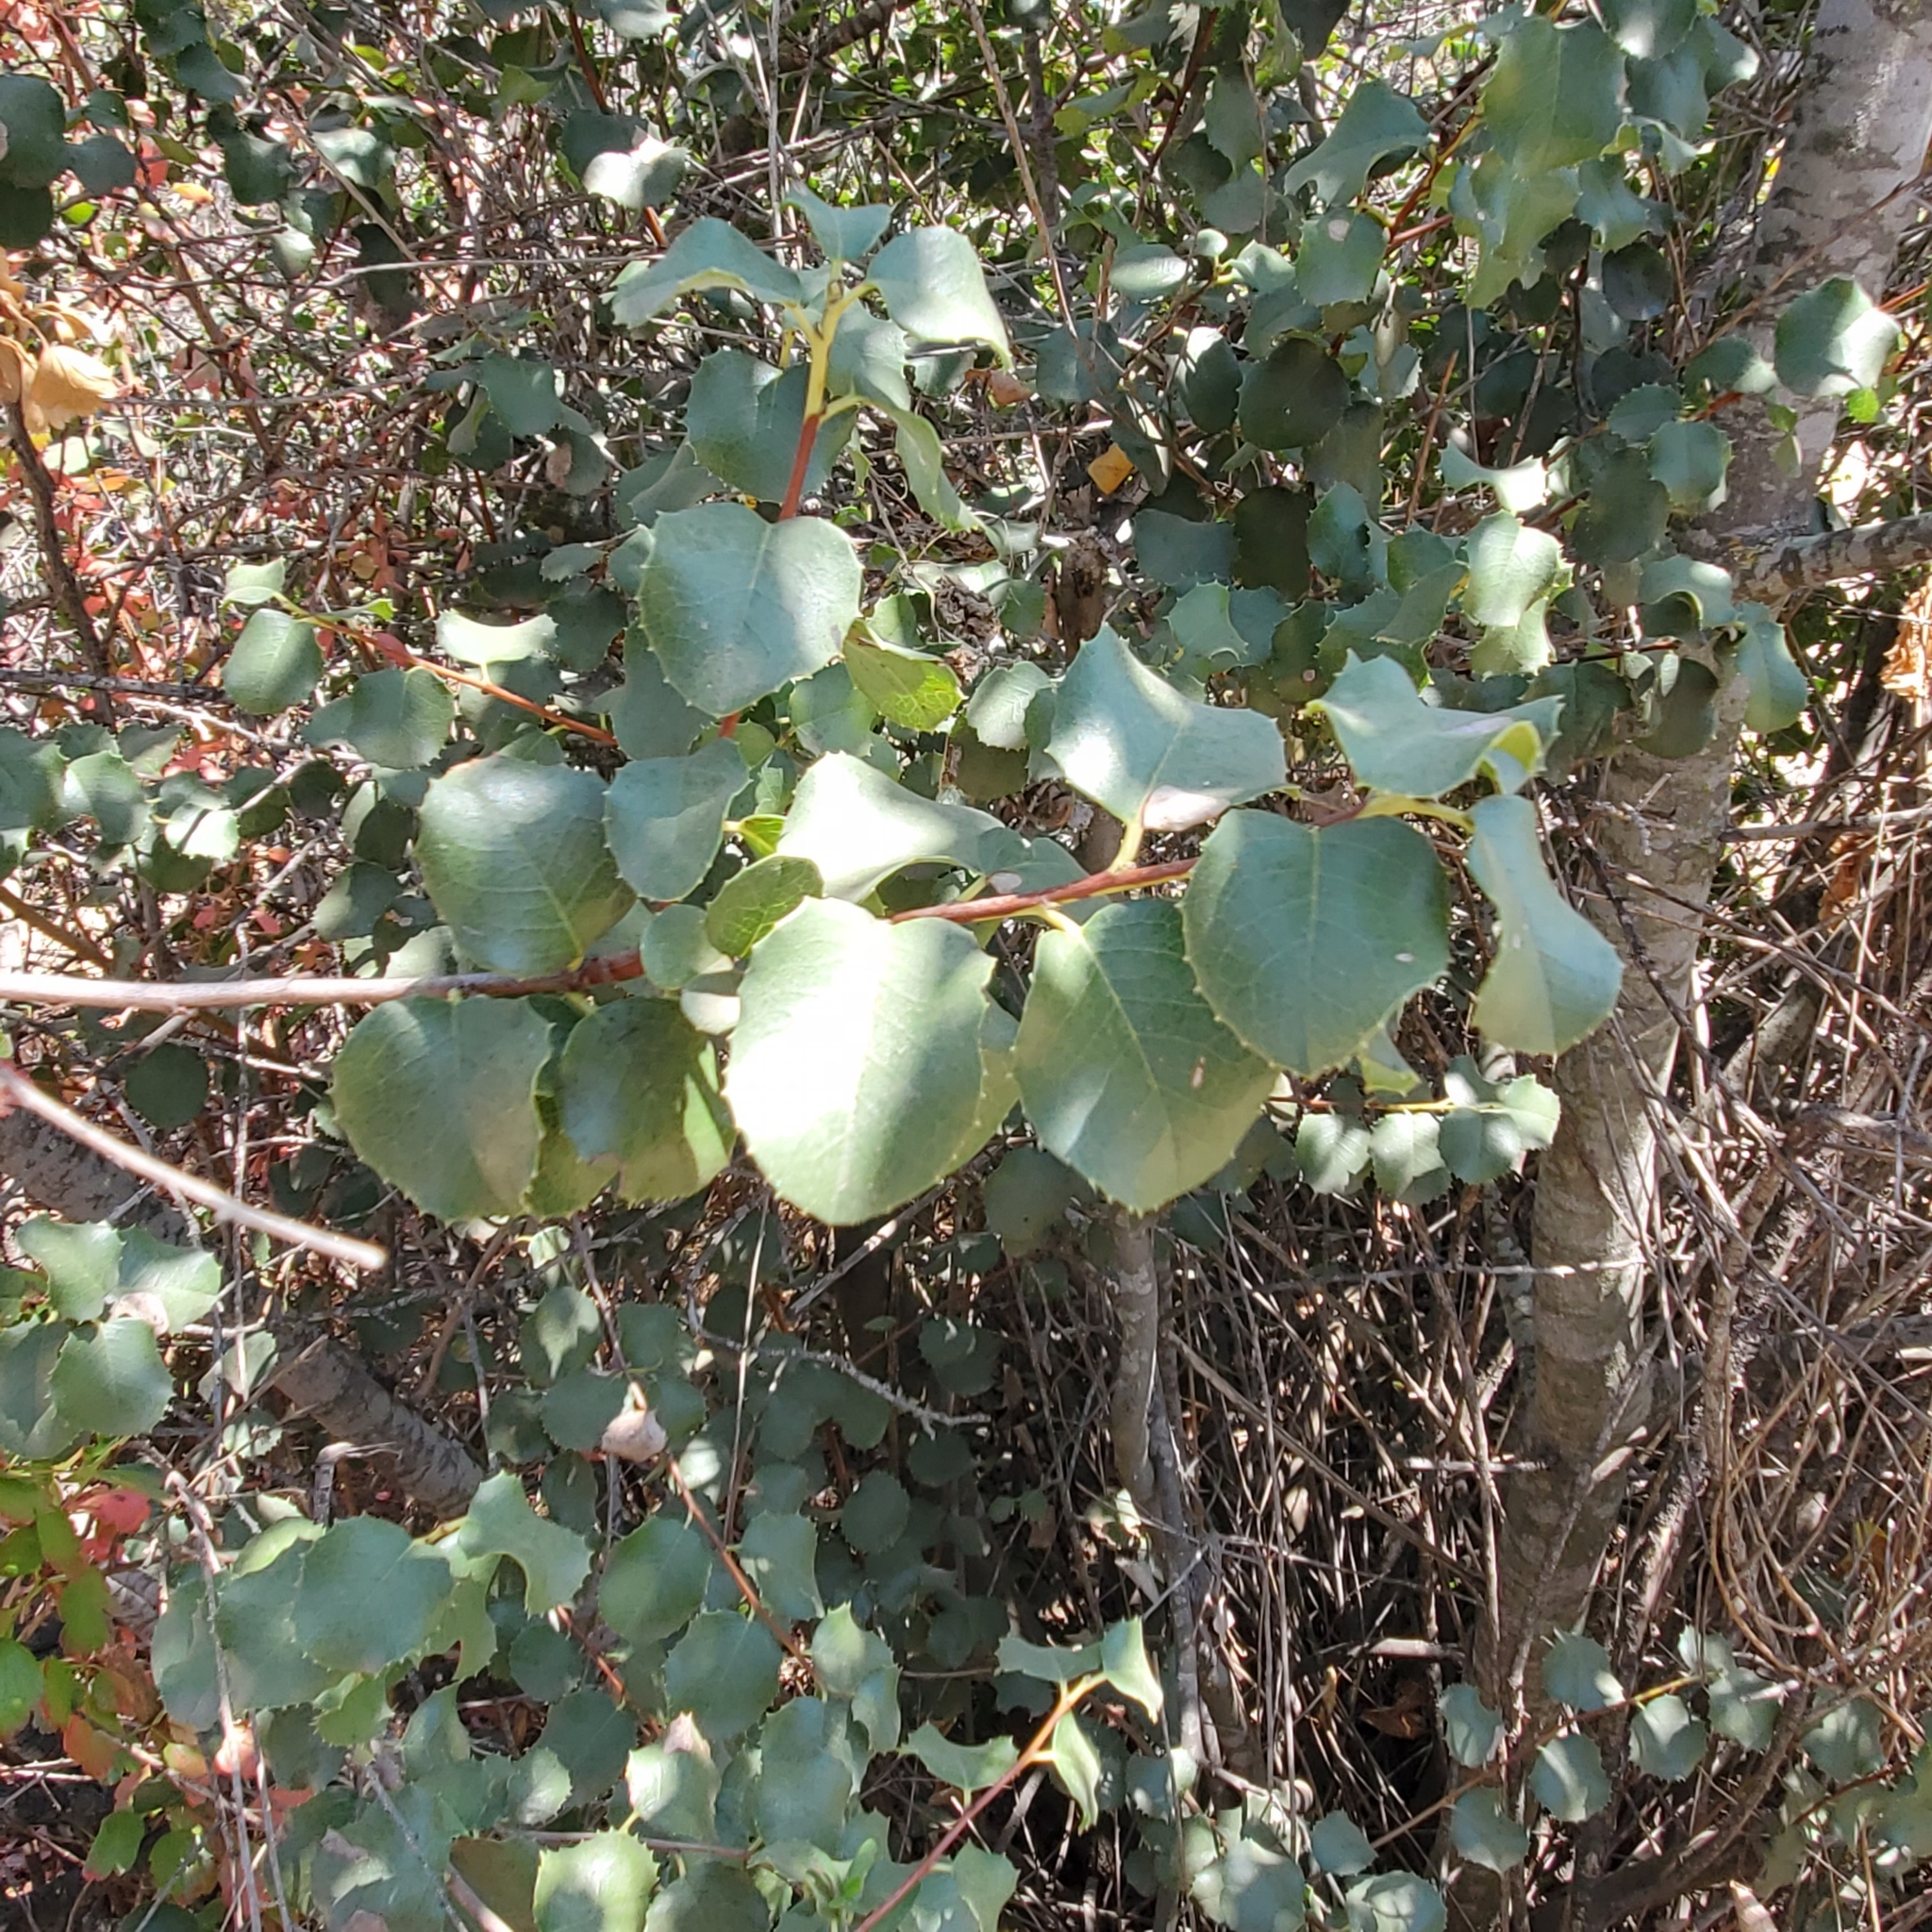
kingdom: Plantae
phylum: Tracheophyta
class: Magnoliopsida
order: Rosales
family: Rosaceae
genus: Prunus
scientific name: Prunus ilicifolia
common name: Hollyleaf cherry
